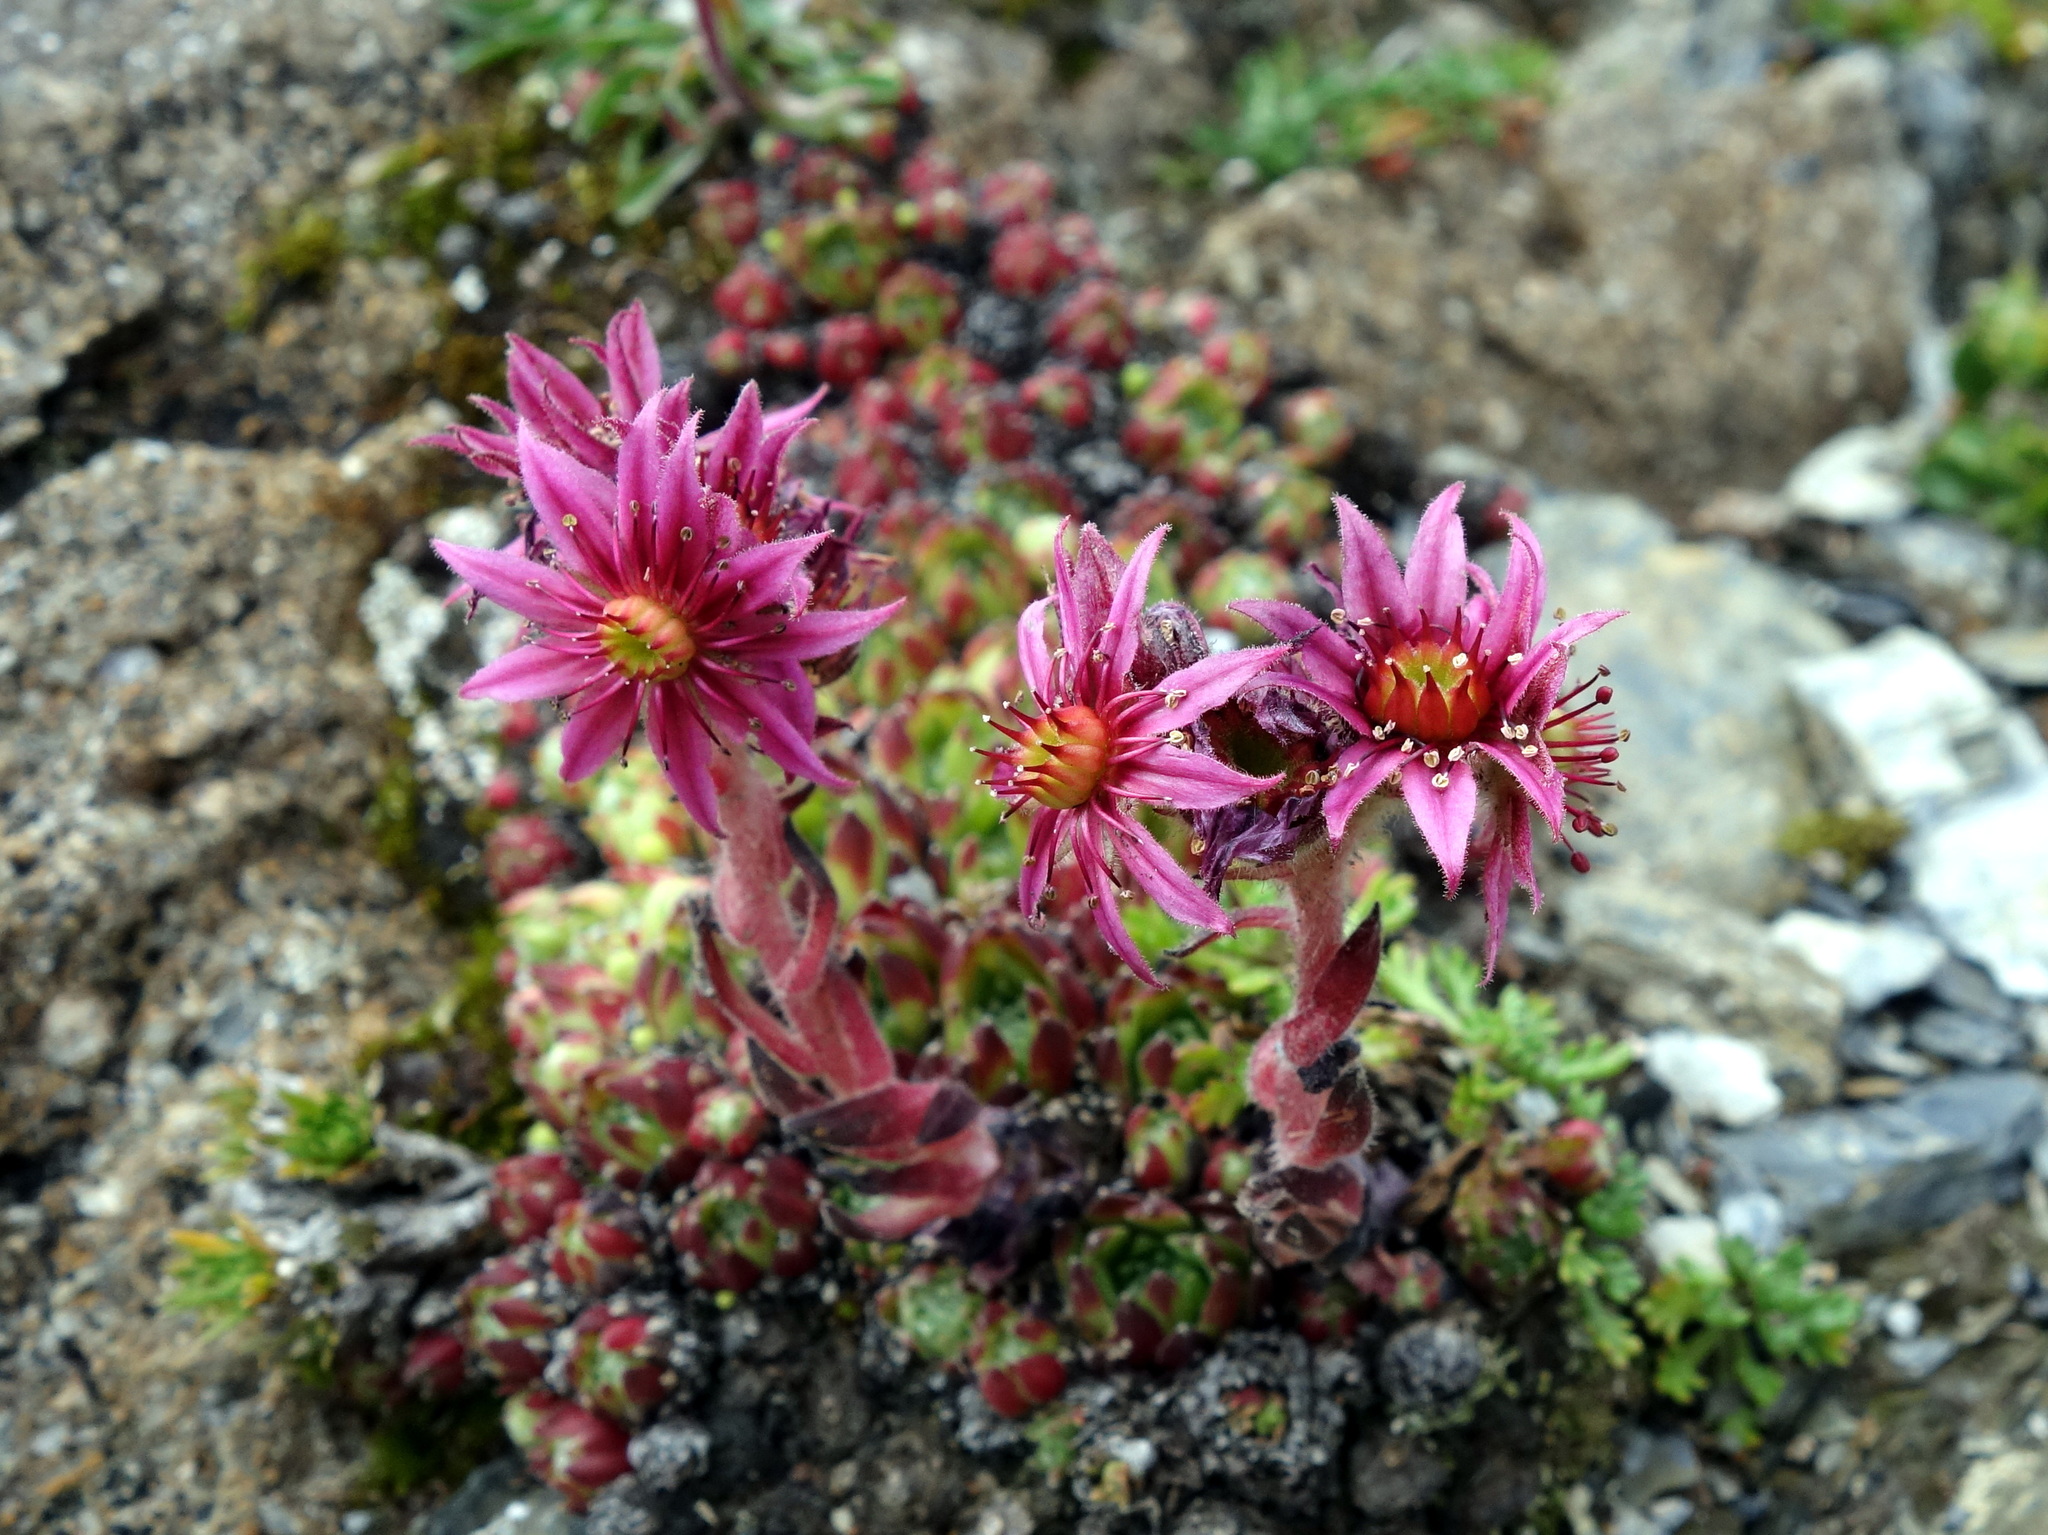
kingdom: Plantae
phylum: Tracheophyta
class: Magnoliopsida
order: Saxifragales
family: Crassulaceae
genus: Sempervivum
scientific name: Sempervivum barbulatum
